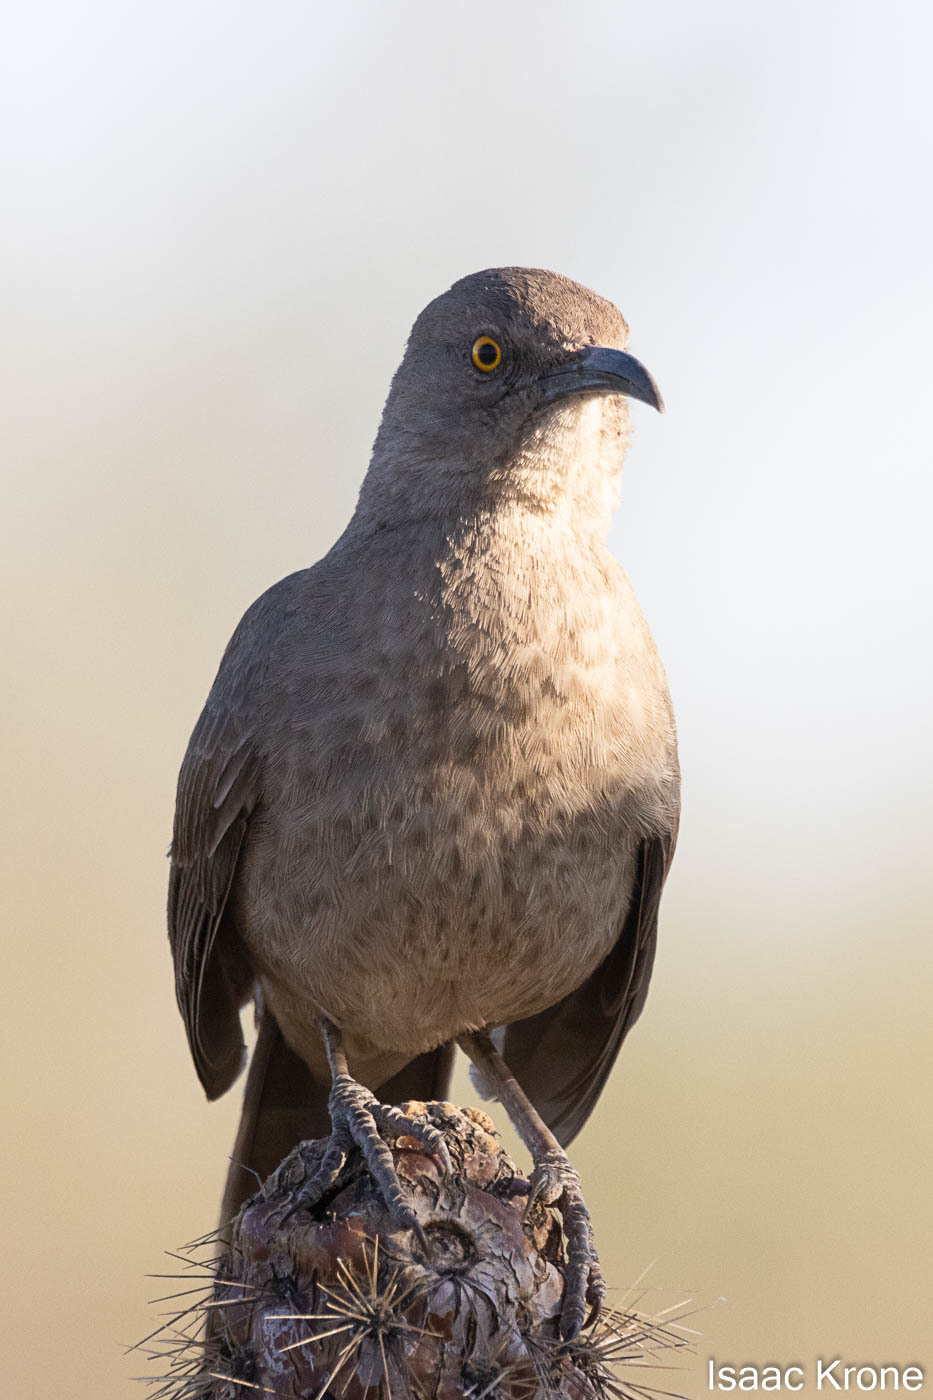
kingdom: Animalia
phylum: Chordata
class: Aves
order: Passeriformes
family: Mimidae
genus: Toxostoma
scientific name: Toxostoma curvirostre
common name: Curve-billed thrasher
